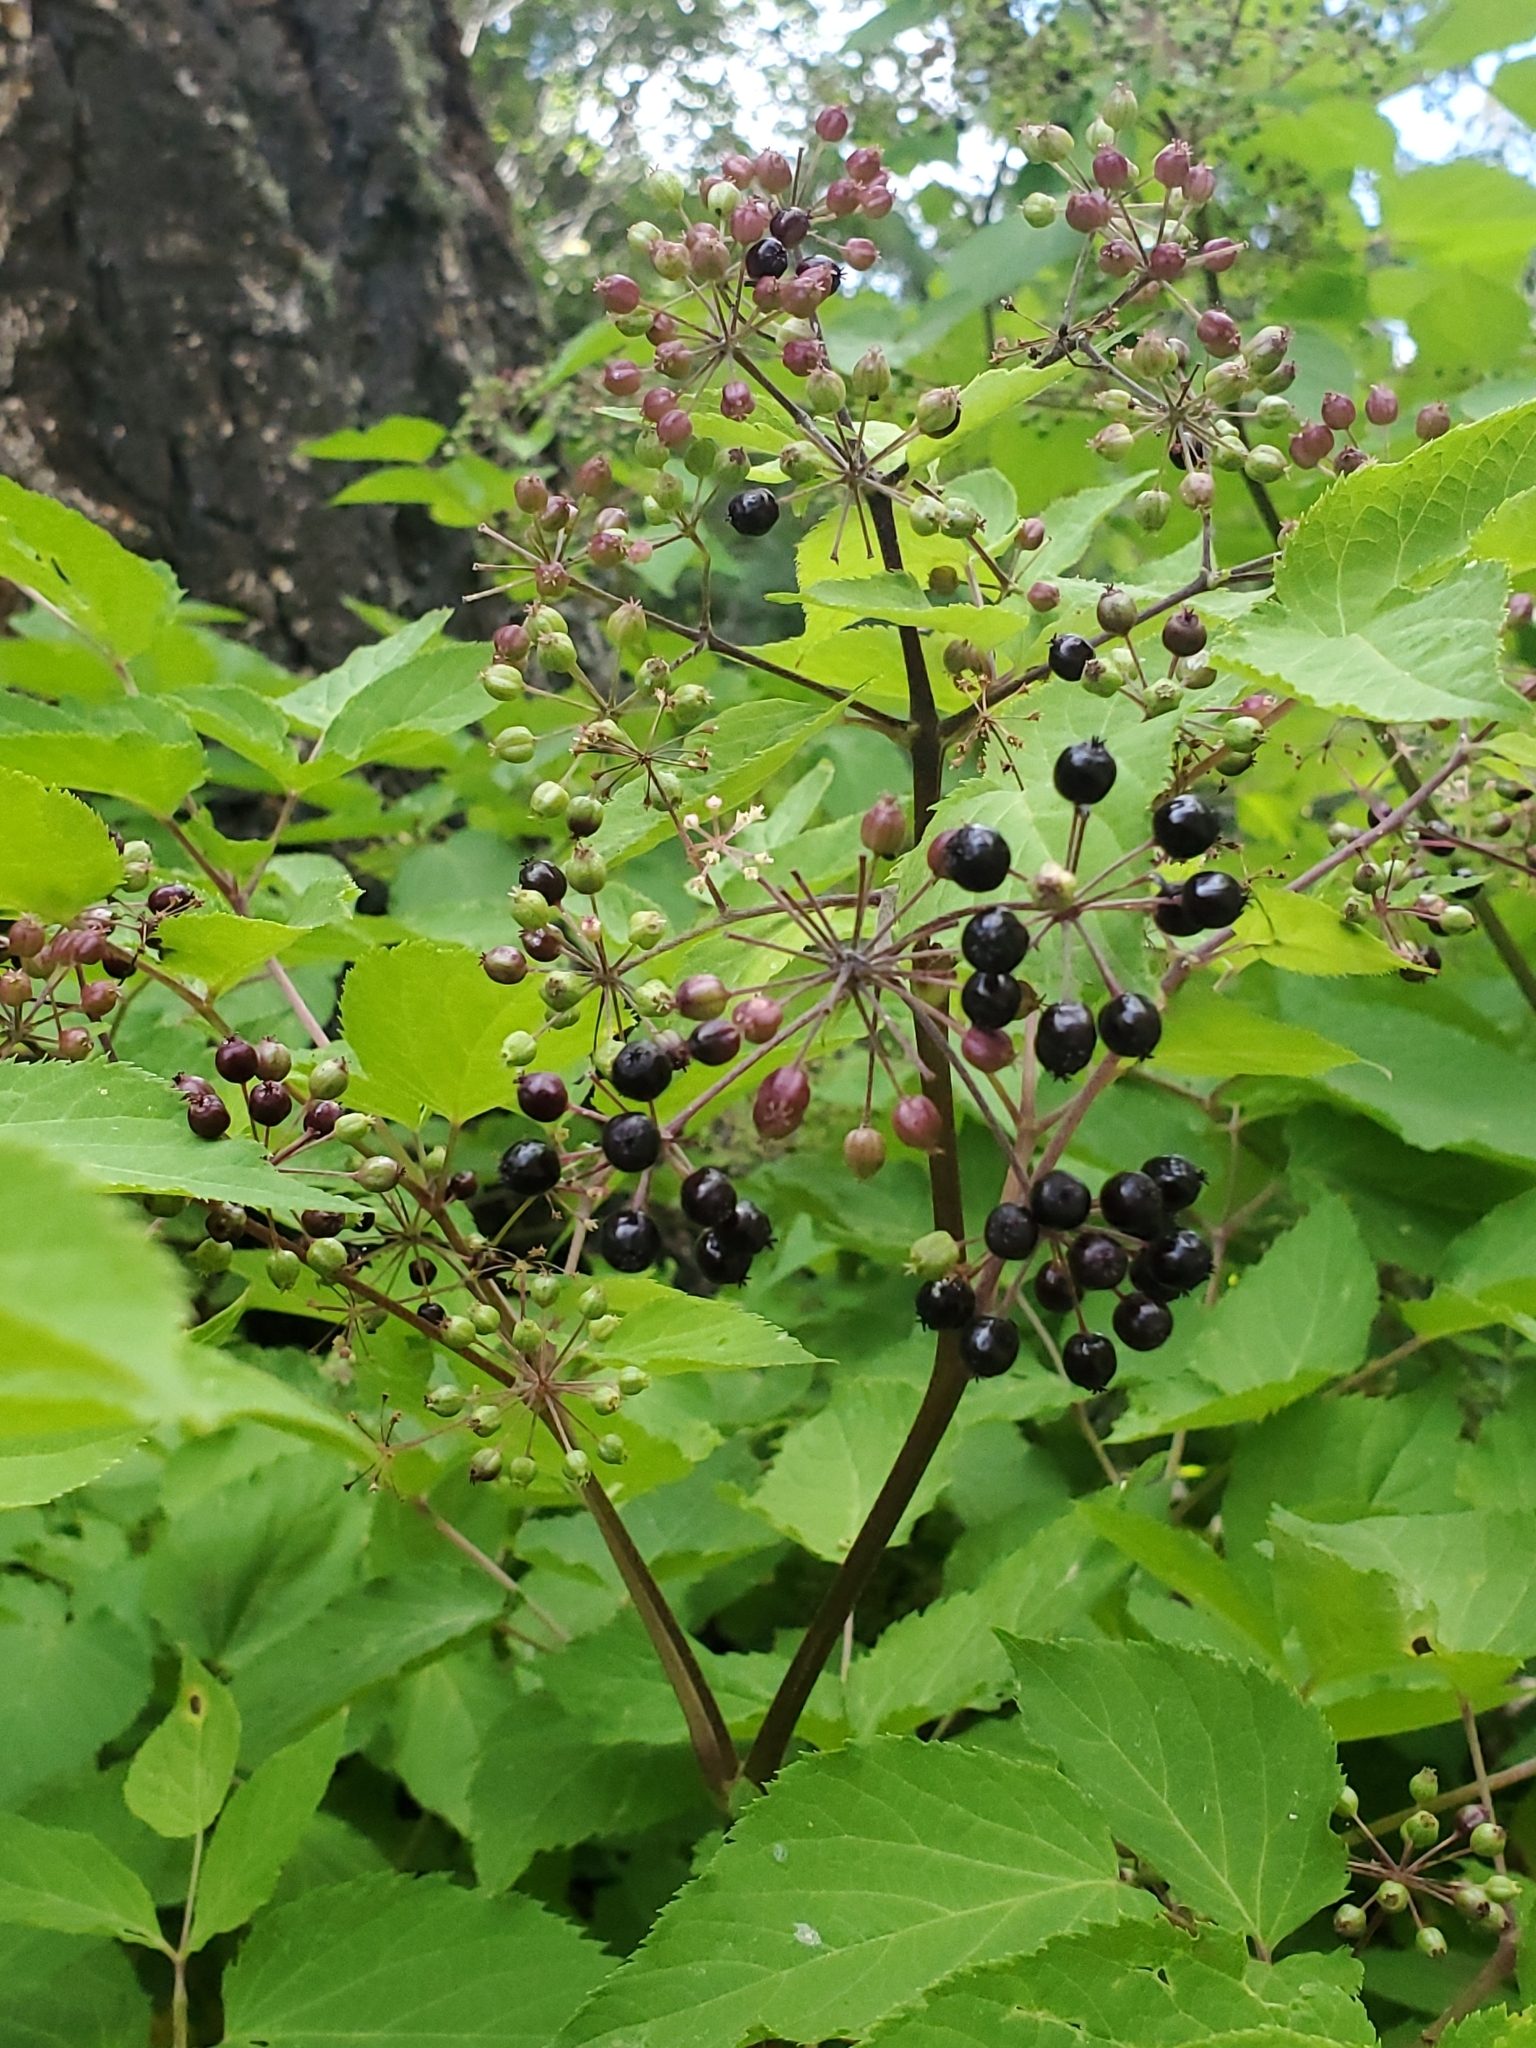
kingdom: Plantae
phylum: Tracheophyta
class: Magnoliopsida
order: Apiales
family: Araliaceae
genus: Aralia
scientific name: Aralia bicrenata
